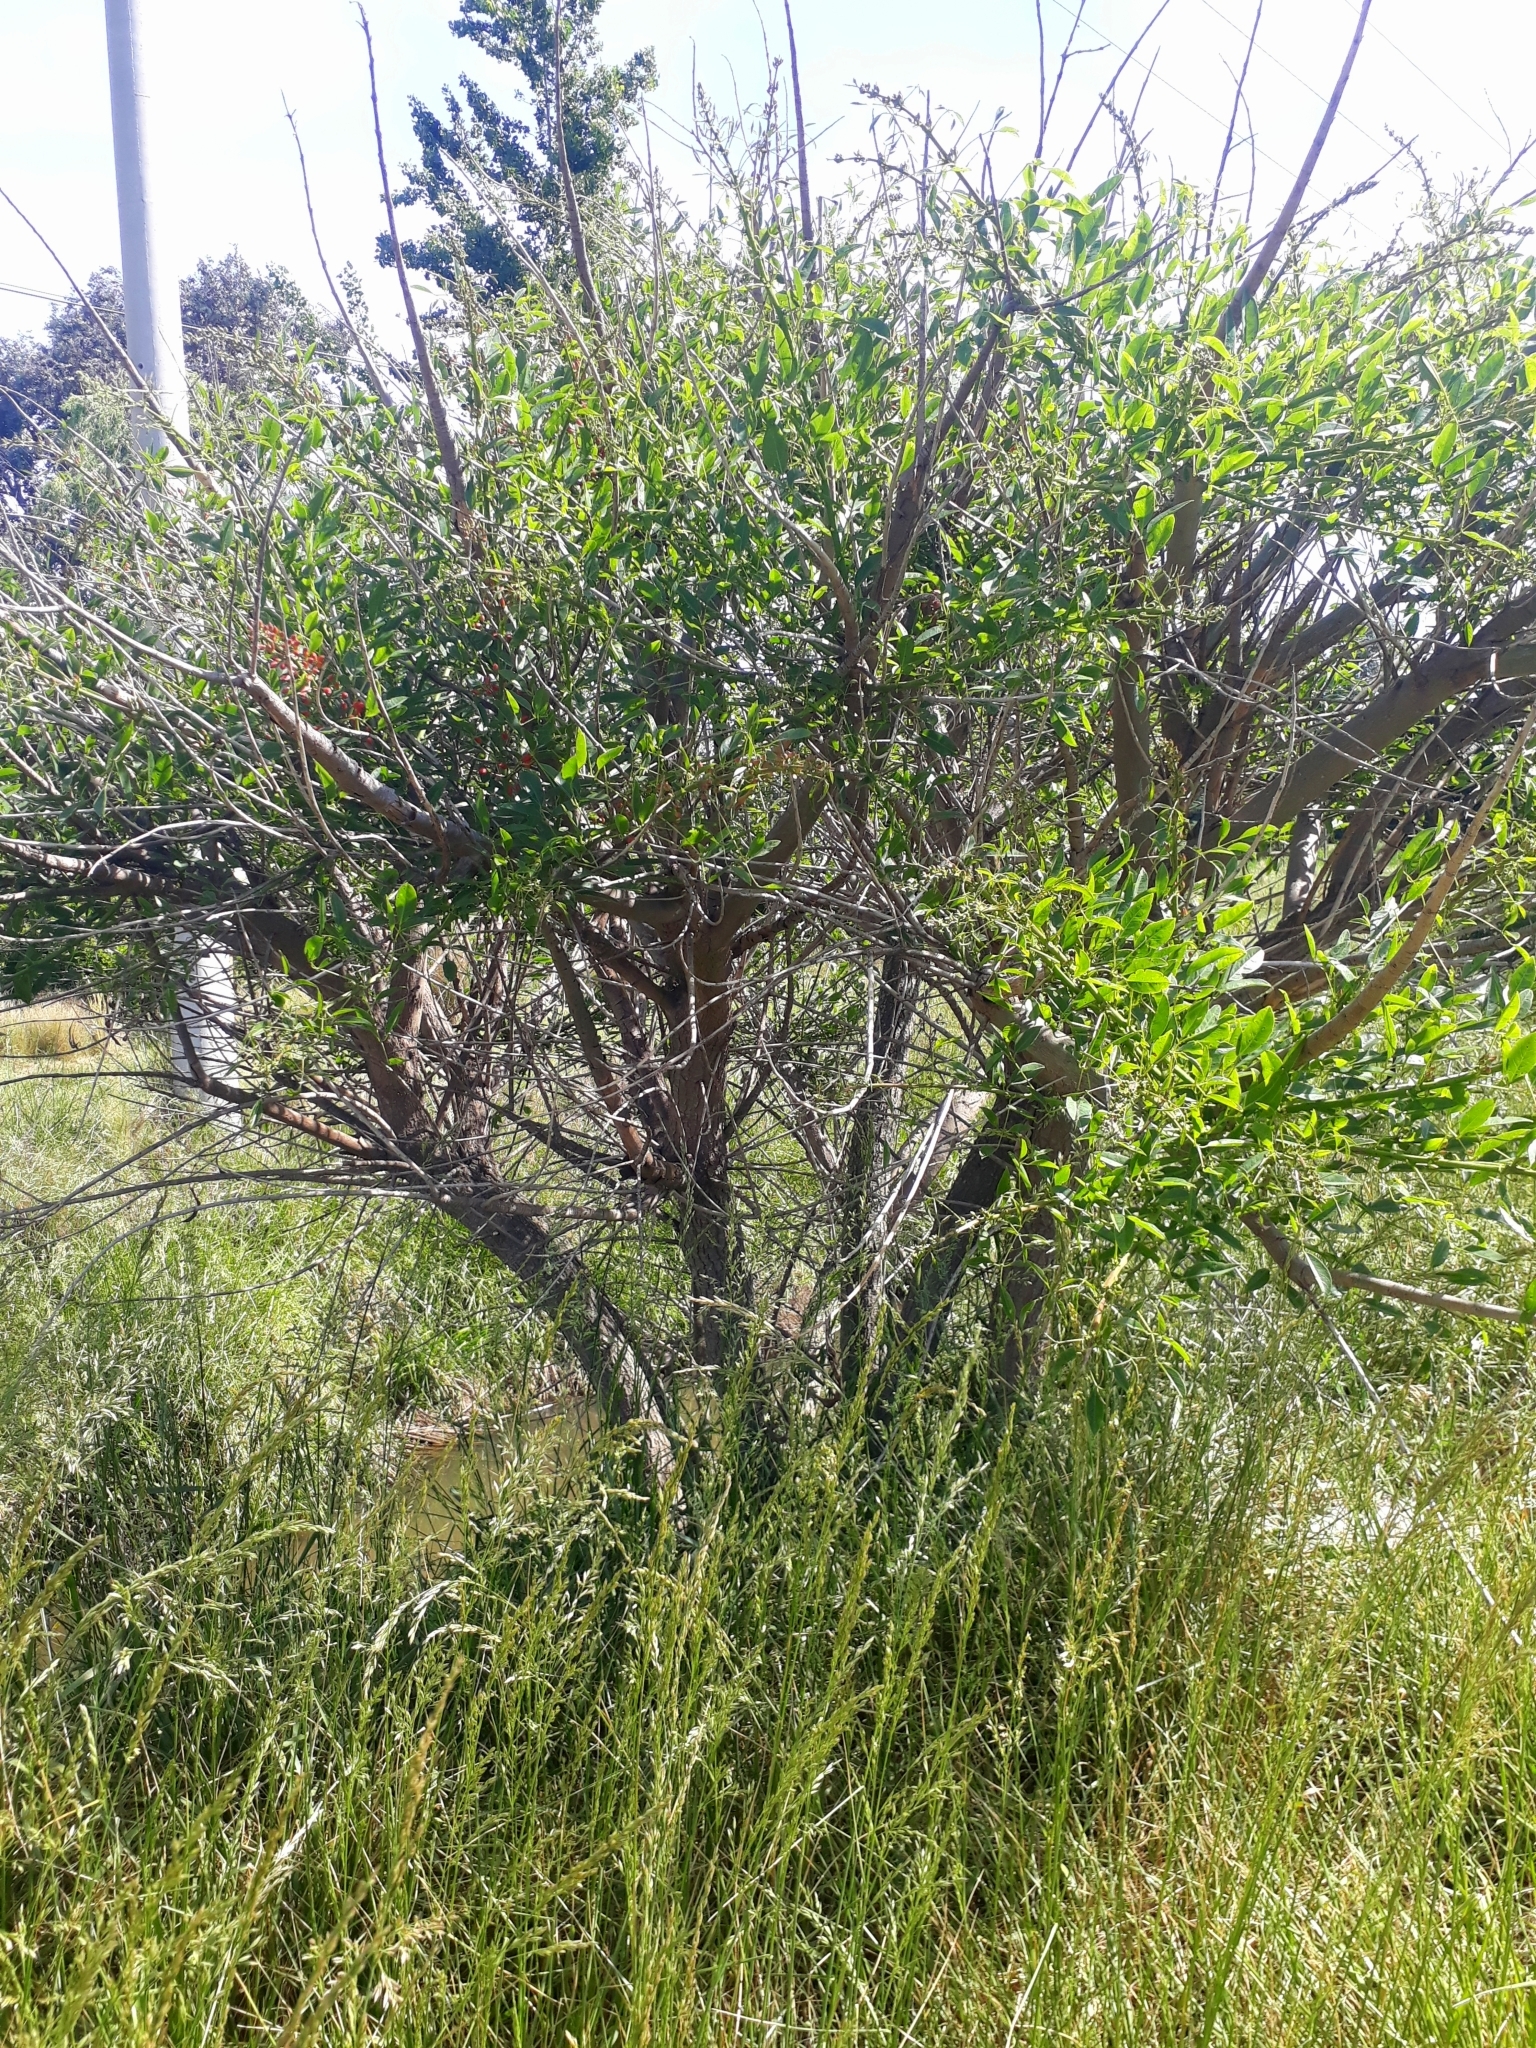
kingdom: Plantae
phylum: Tracheophyta
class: Magnoliopsida
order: Fabales
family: Fabaceae
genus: Erythrina
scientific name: Erythrina crista-galli
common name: Cockspur coral tree
